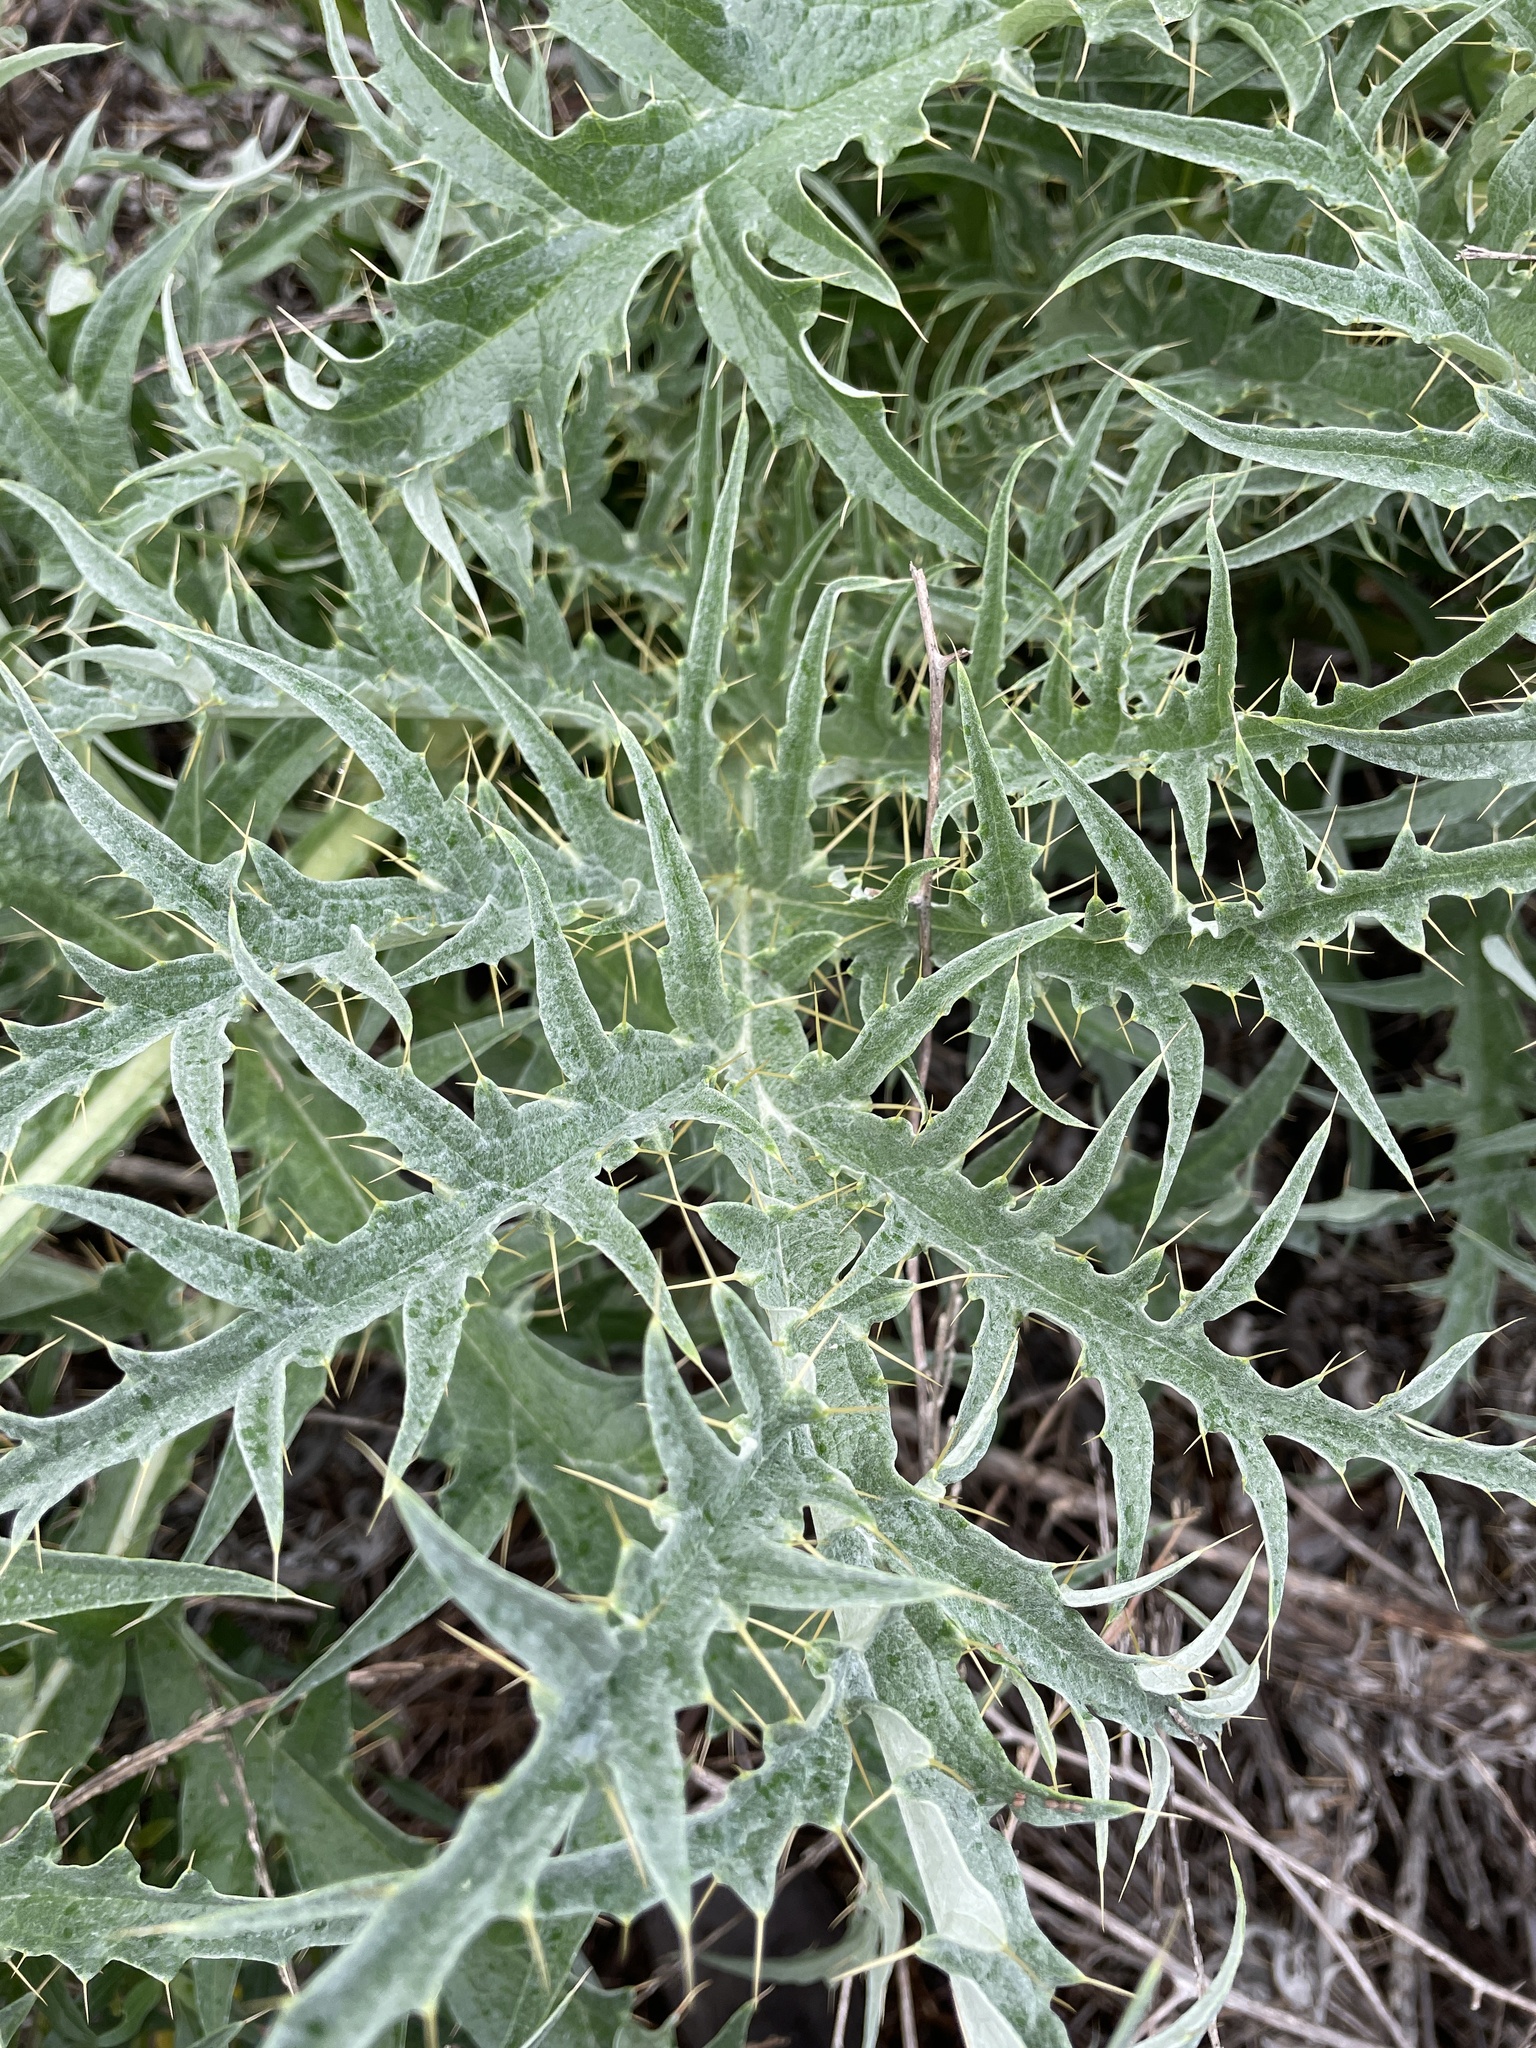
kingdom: Plantae
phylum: Tracheophyta
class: Magnoliopsida
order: Asterales
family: Asteraceae
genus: Cynara
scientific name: Cynara cardunculus
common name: Globe artichoke
